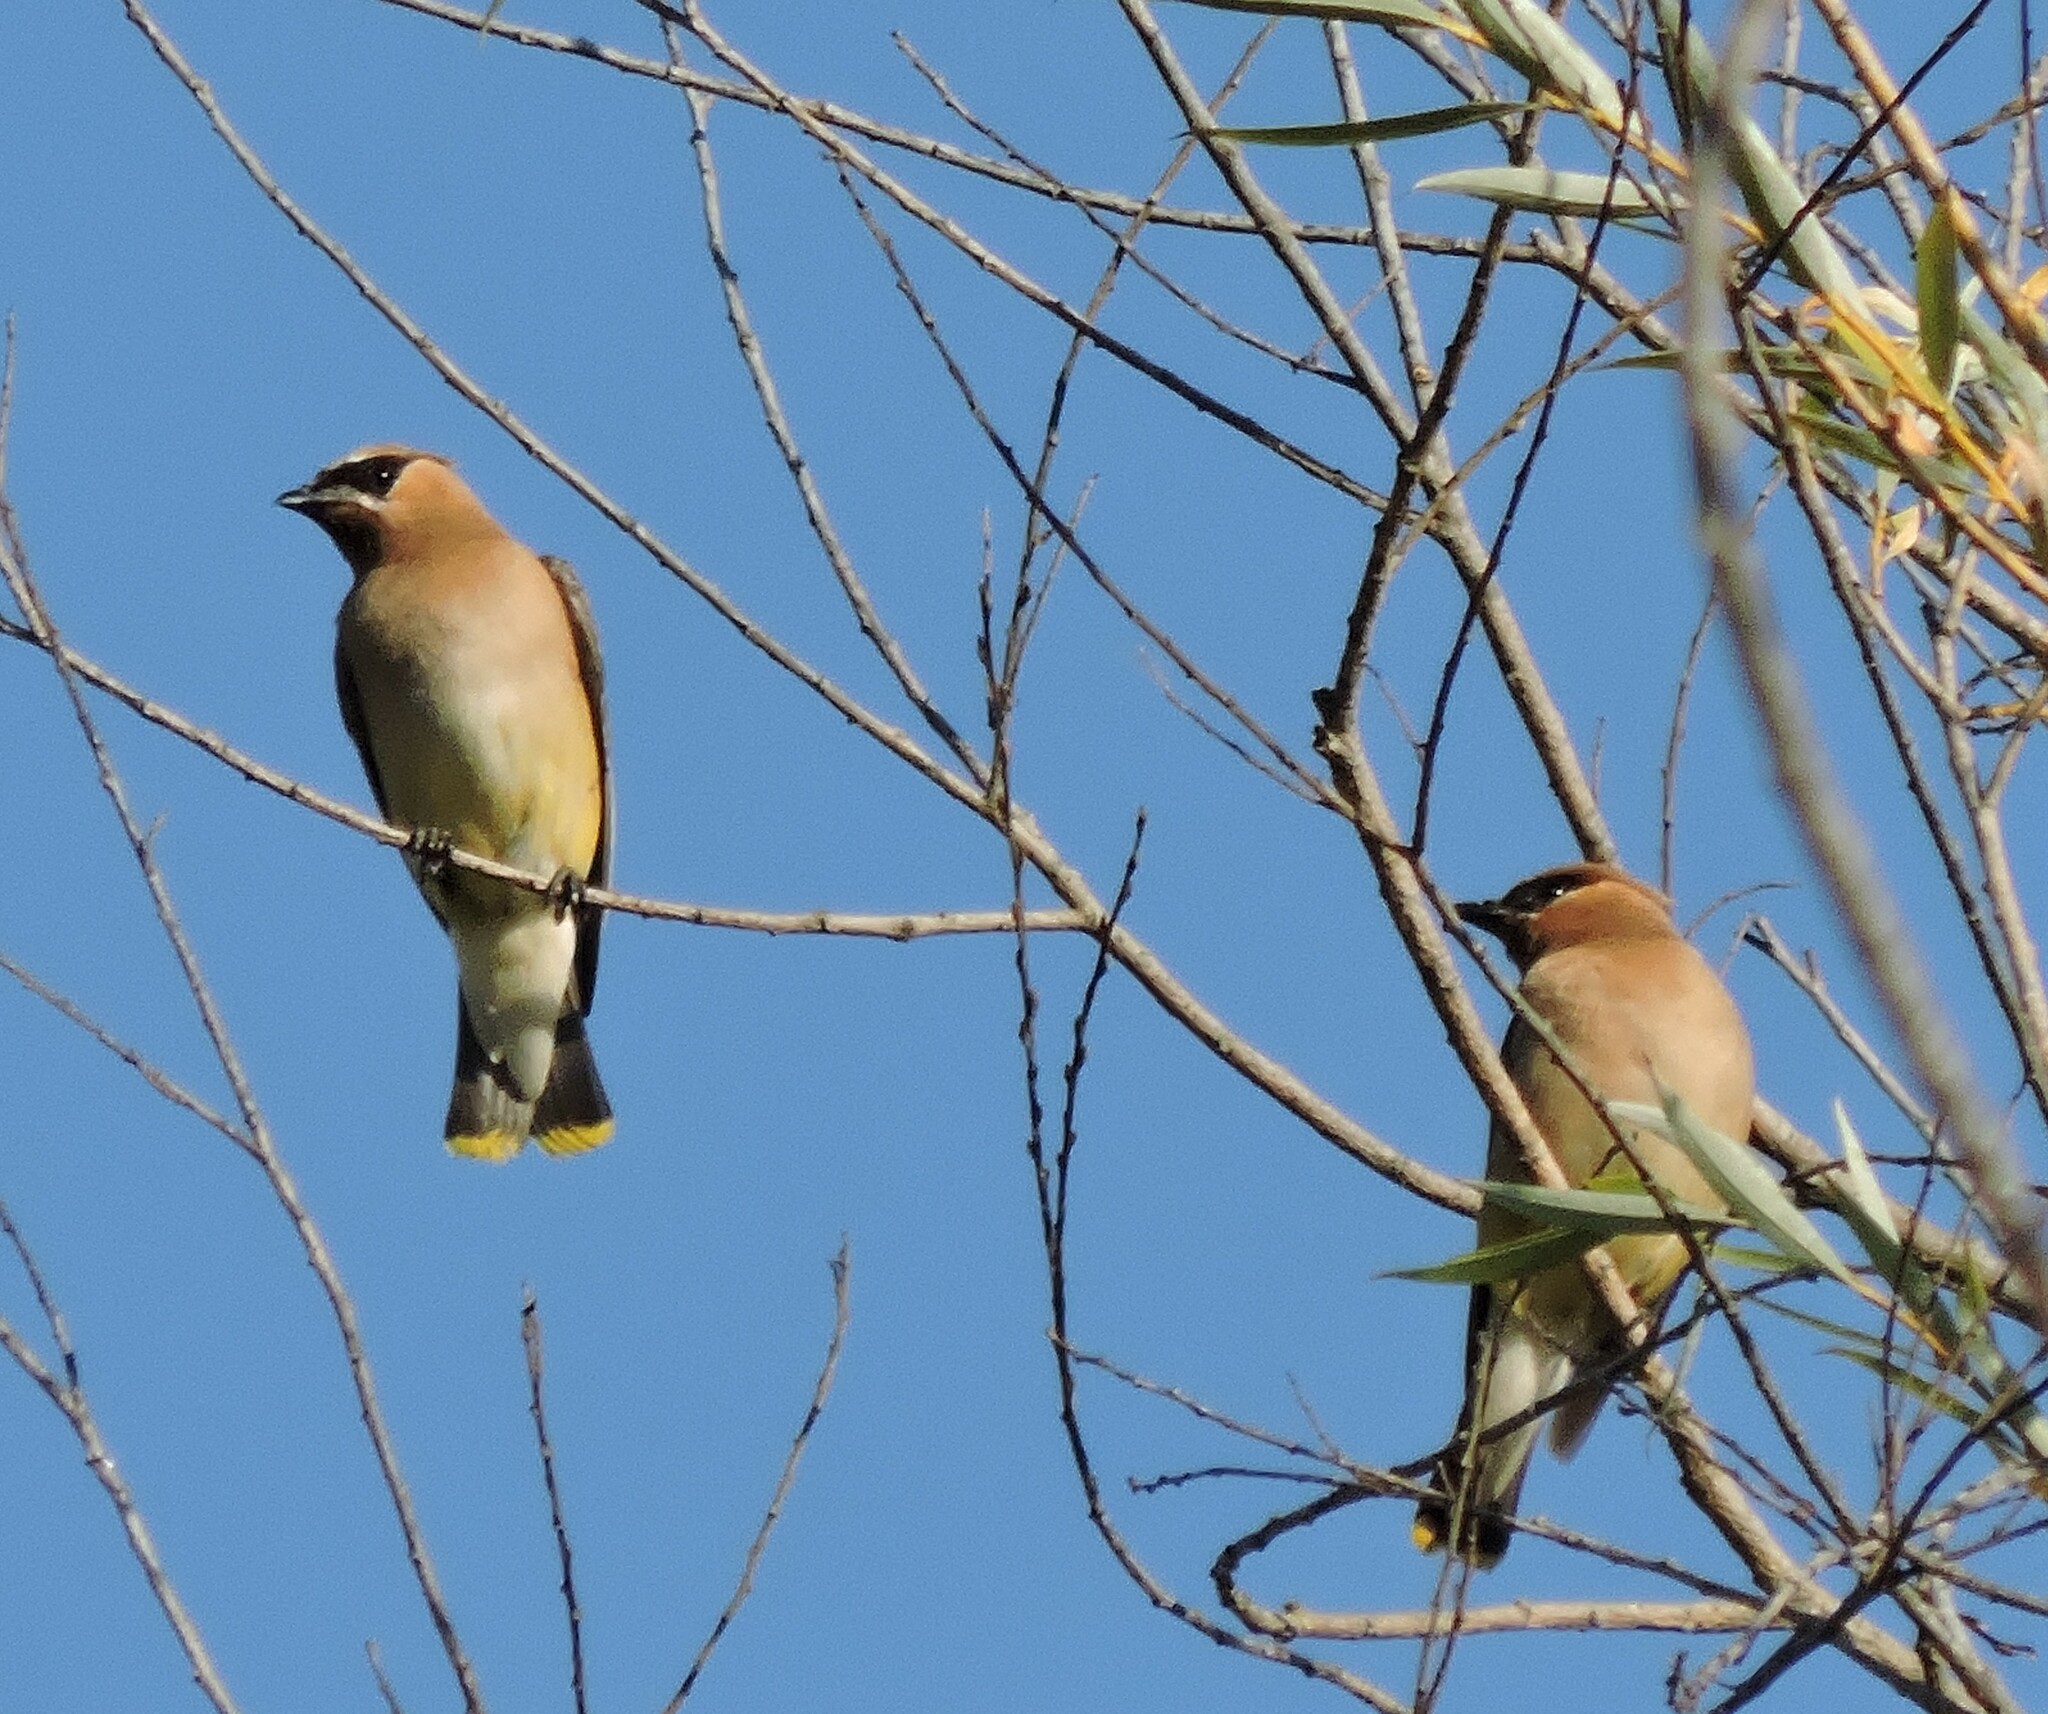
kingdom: Animalia
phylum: Chordata
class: Aves
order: Passeriformes
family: Bombycillidae
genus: Bombycilla
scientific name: Bombycilla cedrorum
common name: Cedar waxwing
